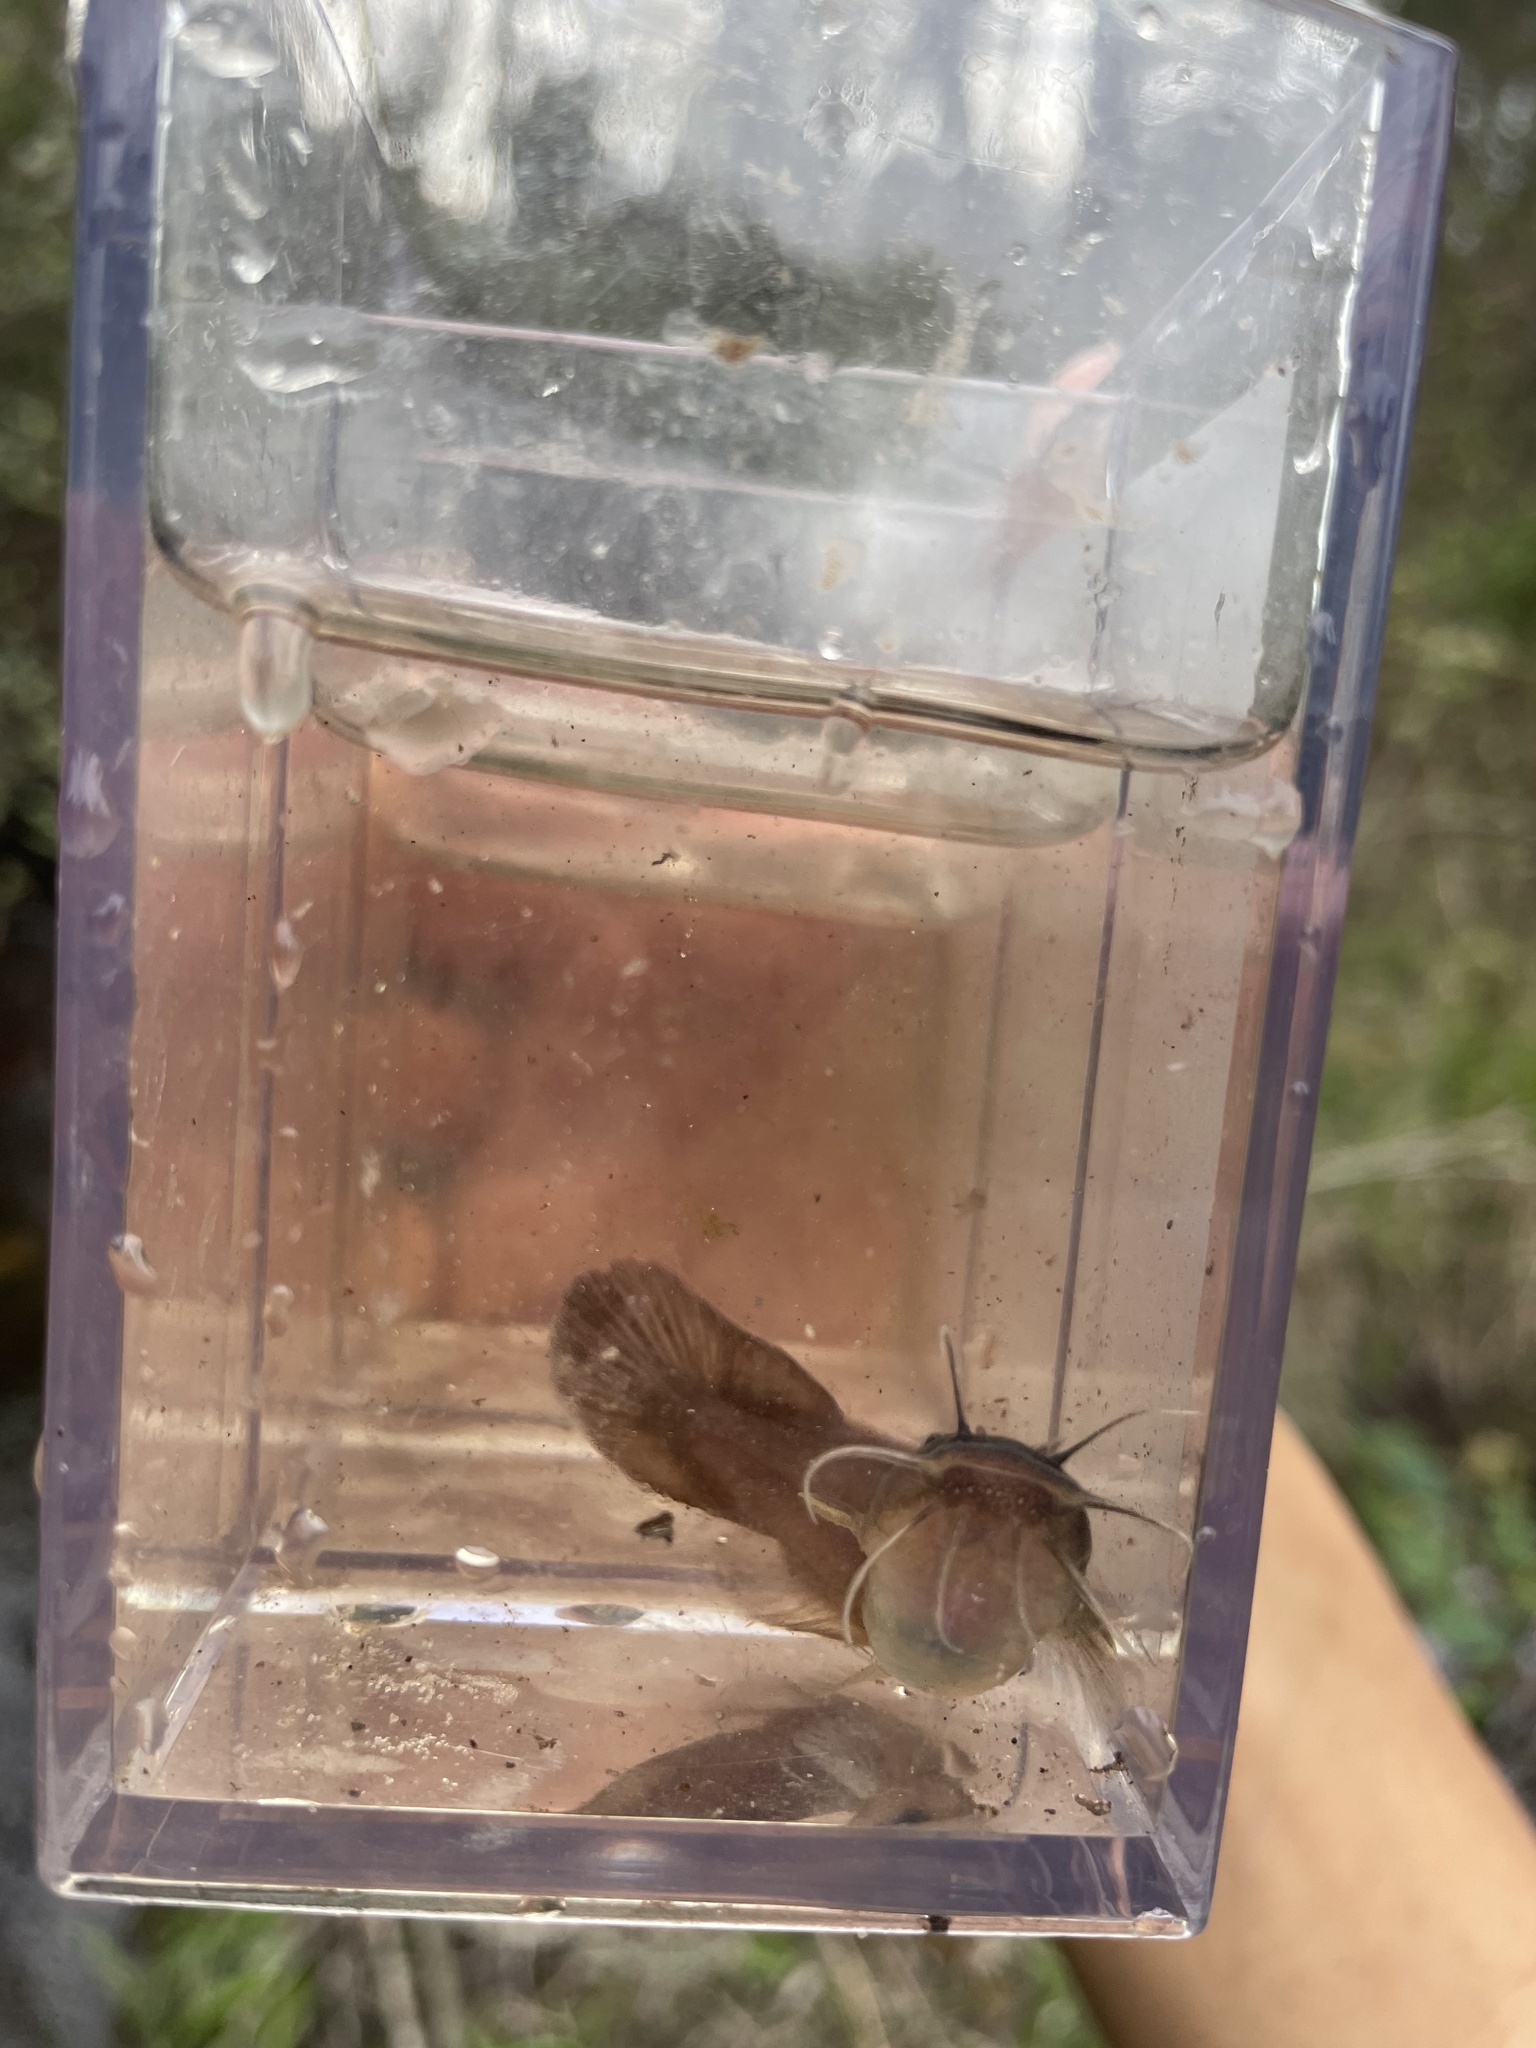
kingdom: Animalia
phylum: Chordata
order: Siluriformes
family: Ictaluridae
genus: Noturus
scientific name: Noturus gyrinus
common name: Tadpole madtom
